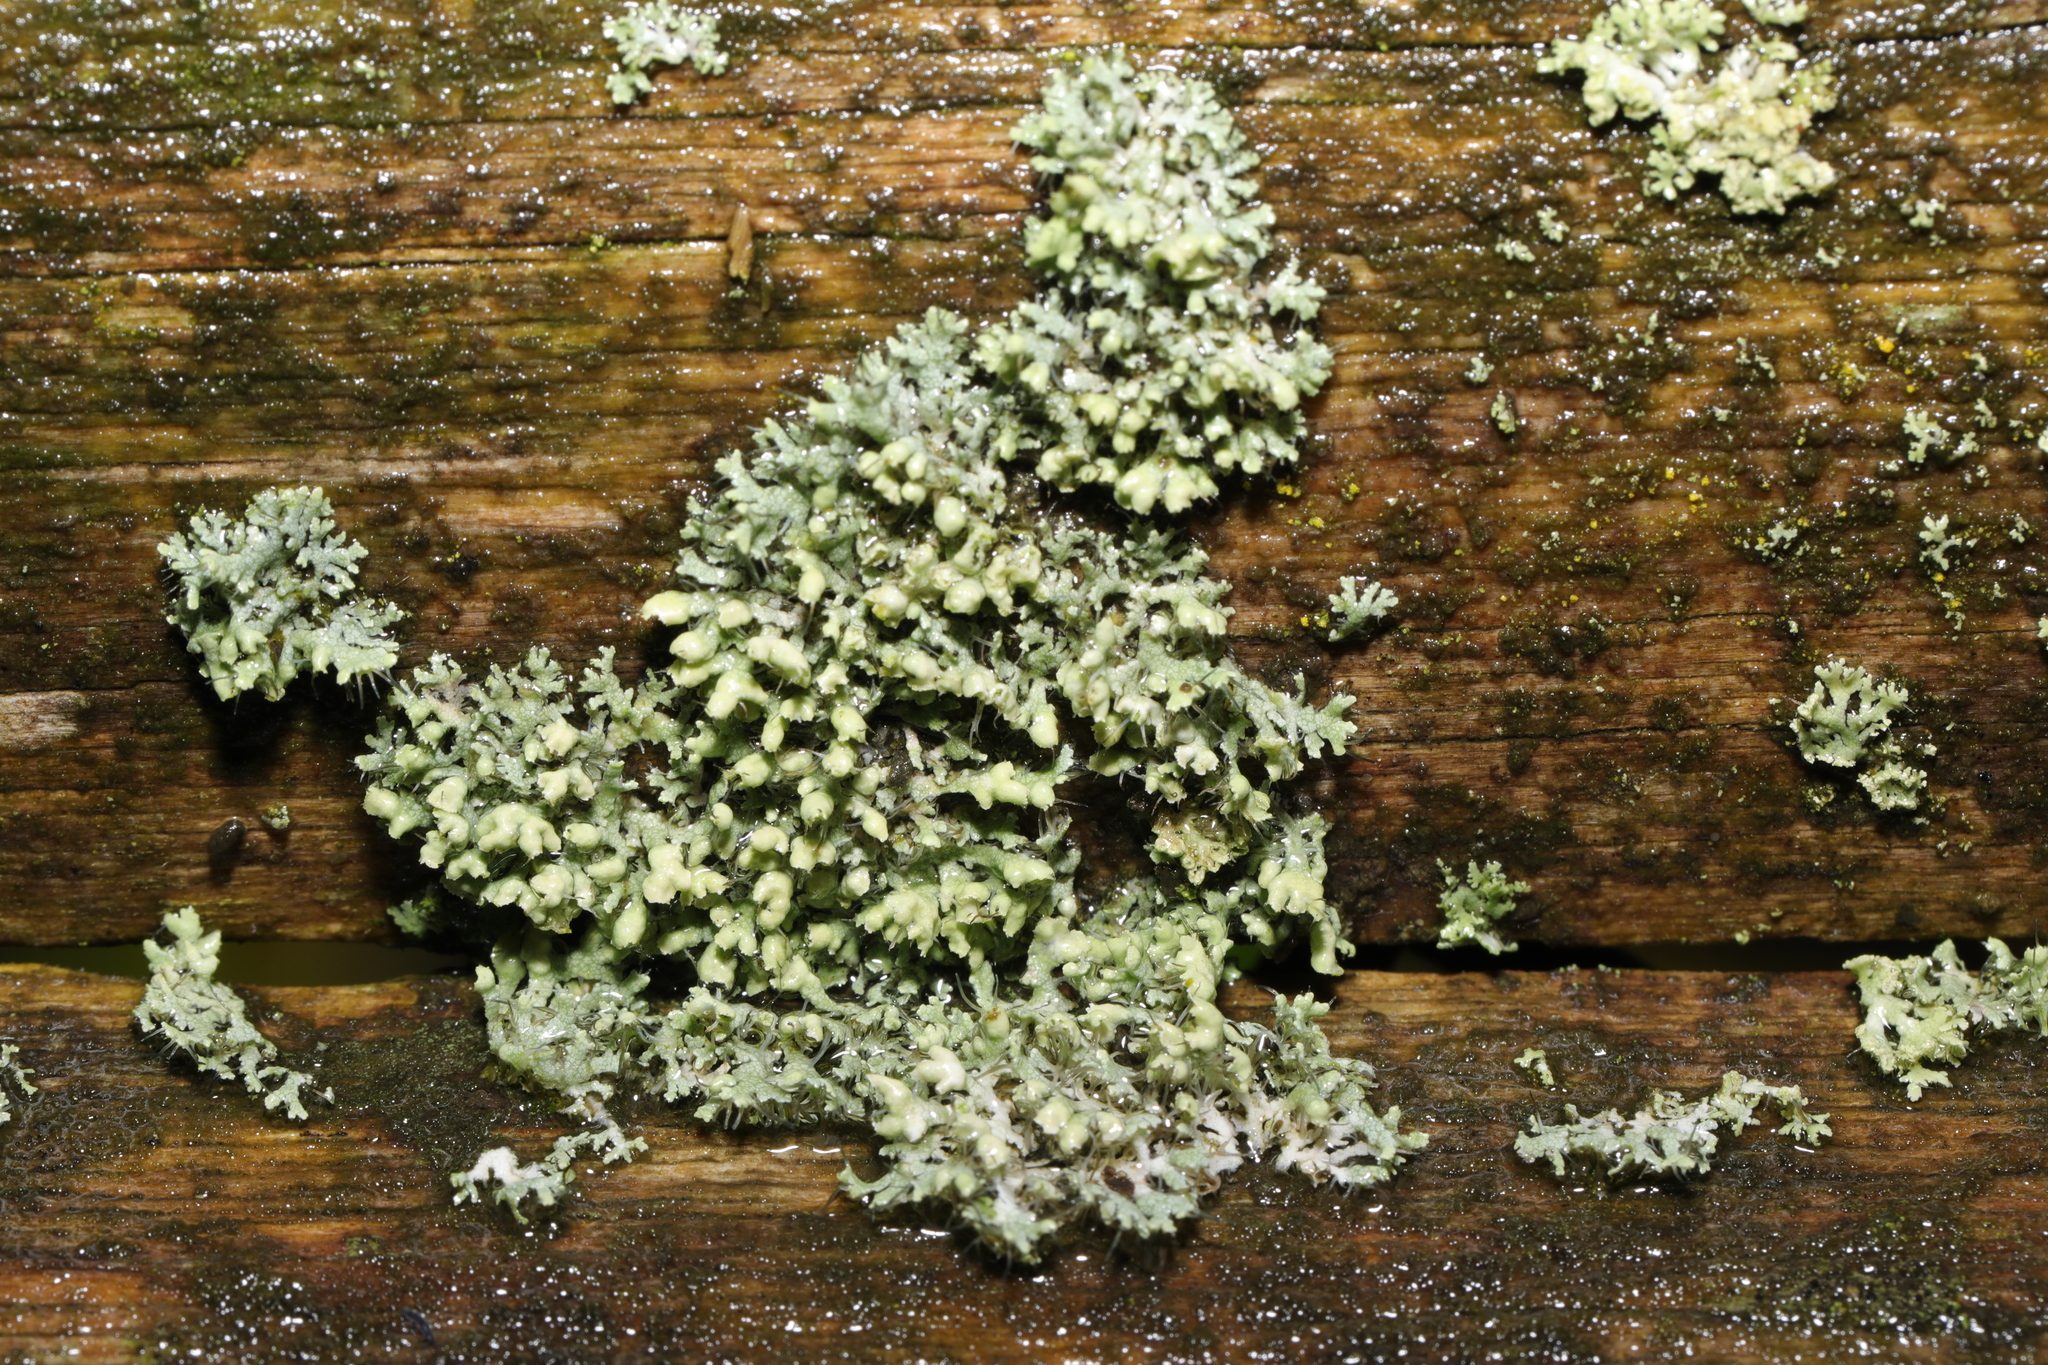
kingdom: Fungi
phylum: Ascomycota
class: Lecanoromycetes
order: Caliciales
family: Physciaceae
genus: Physcia
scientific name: Physcia adscendens
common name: Hooded rosette lichen
